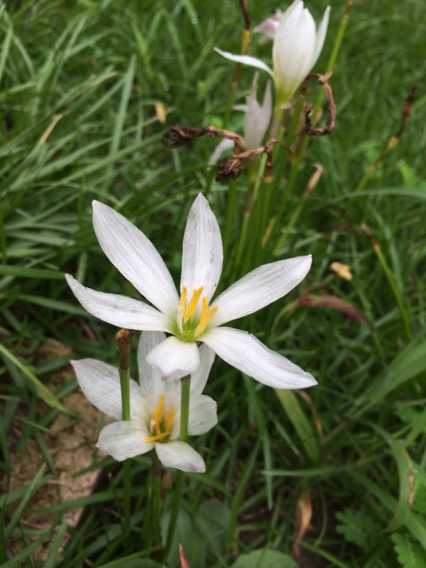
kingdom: Plantae
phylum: Tracheophyta
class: Liliopsida
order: Asparagales
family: Amaryllidaceae
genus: Zephyranthes
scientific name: Zephyranthes candida
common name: Autumn zephyrlily
